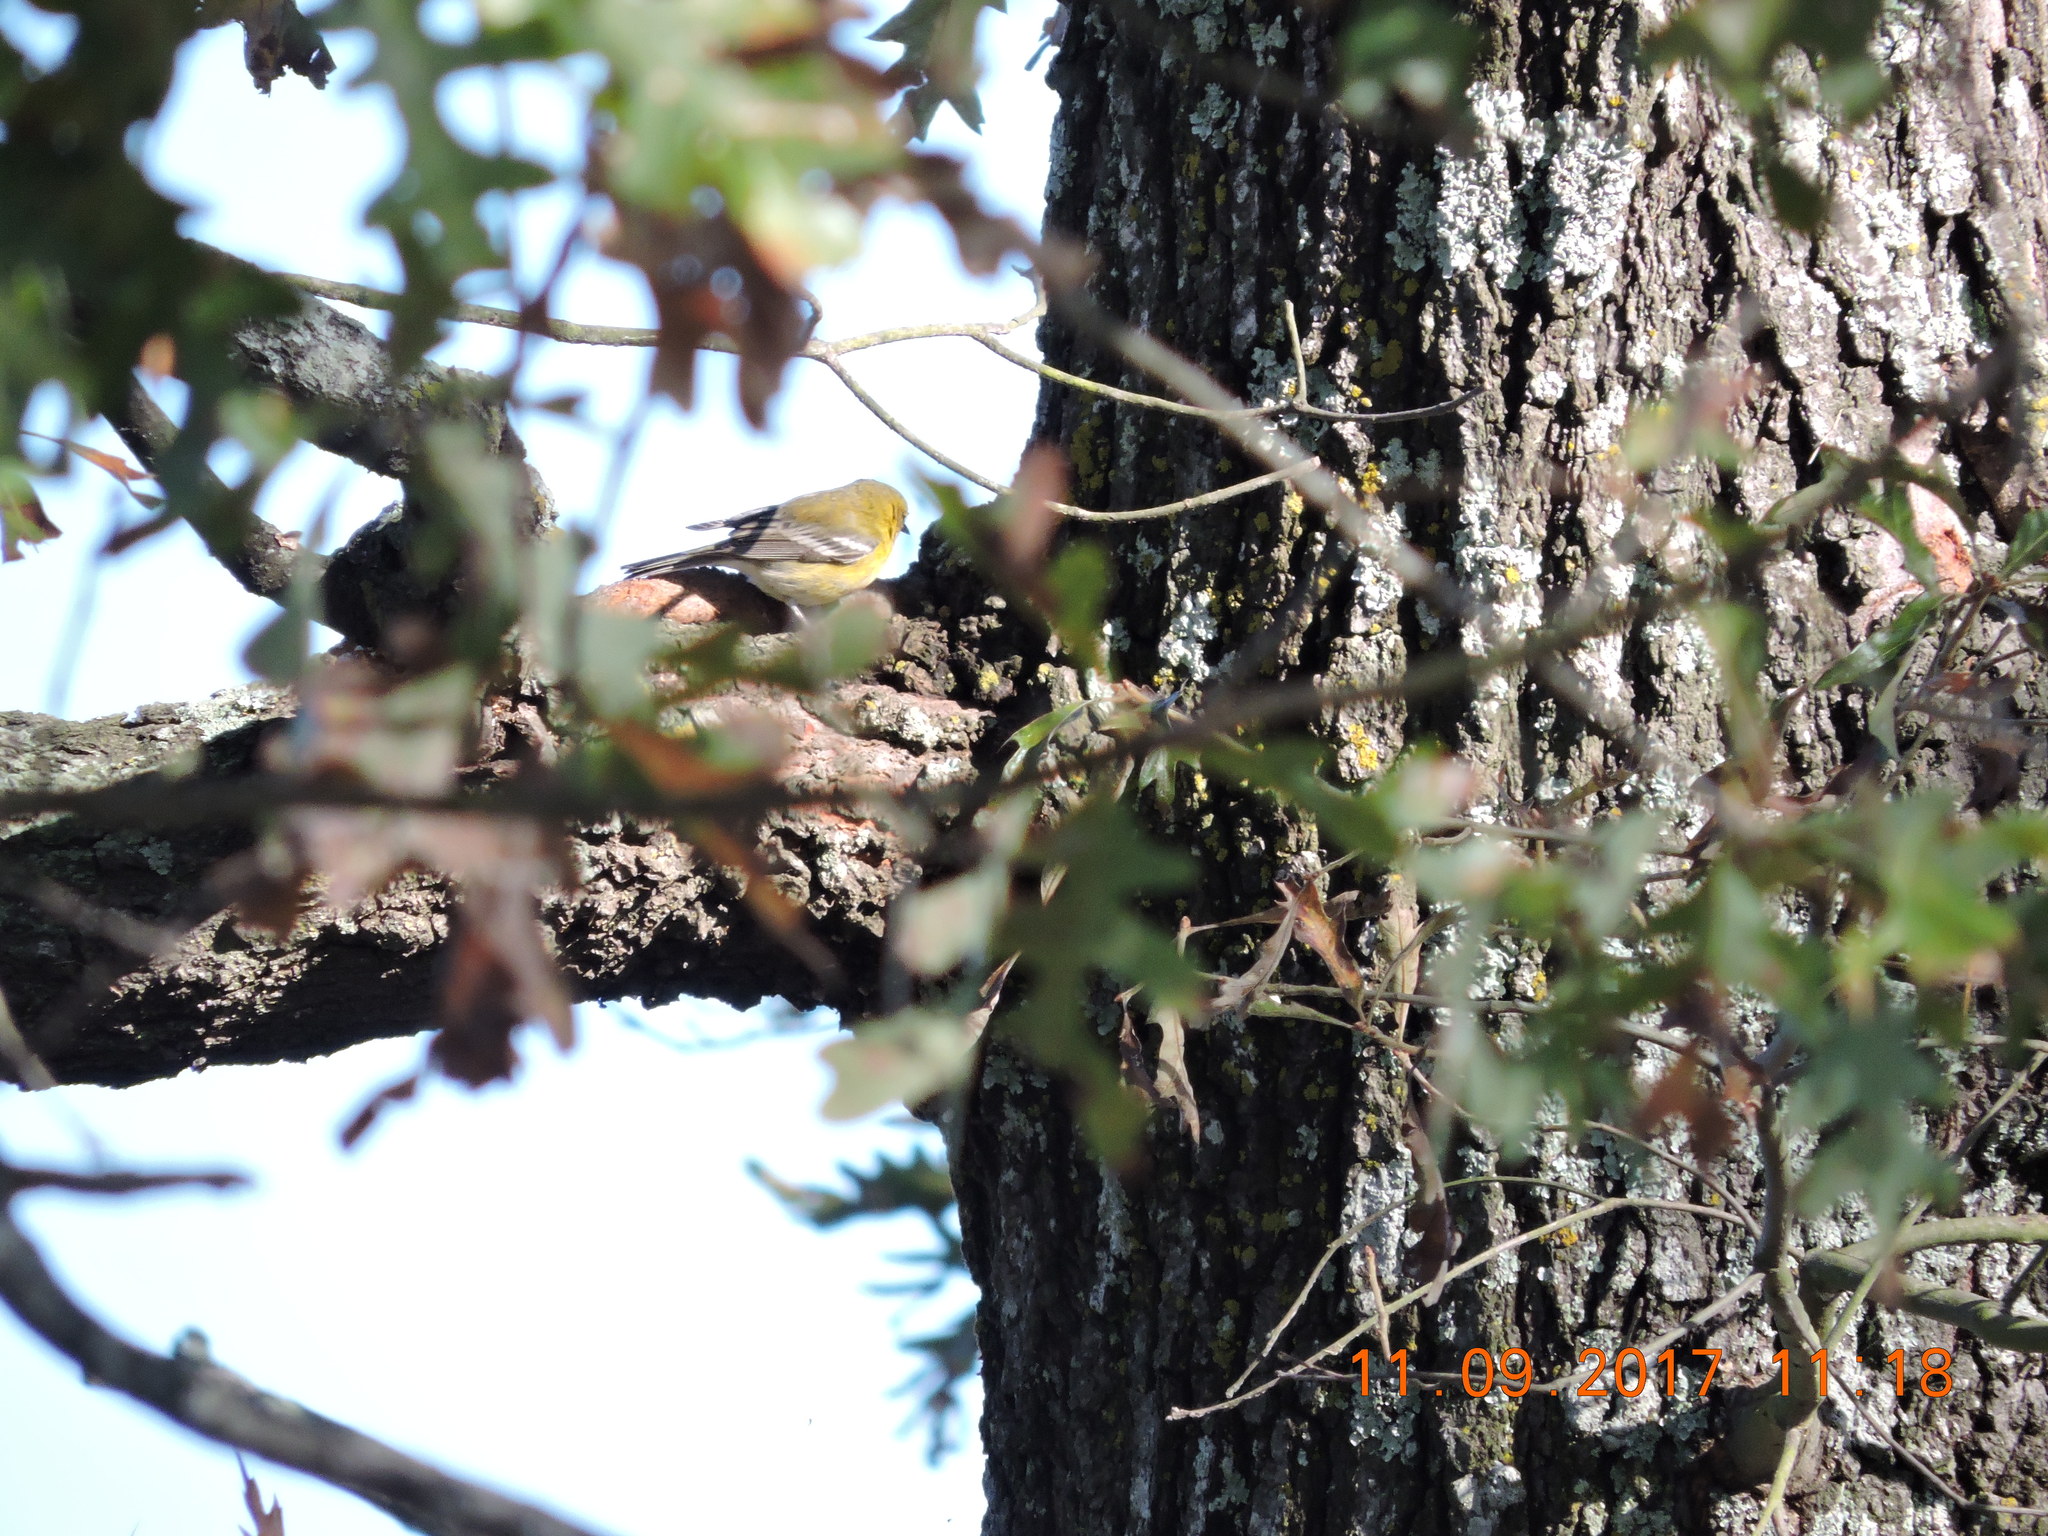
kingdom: Animalia
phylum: Chordata
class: Aves
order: Passeriformes
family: Parulidae
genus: Setophaga
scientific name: Setophaga pinus
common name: Pine warbler
